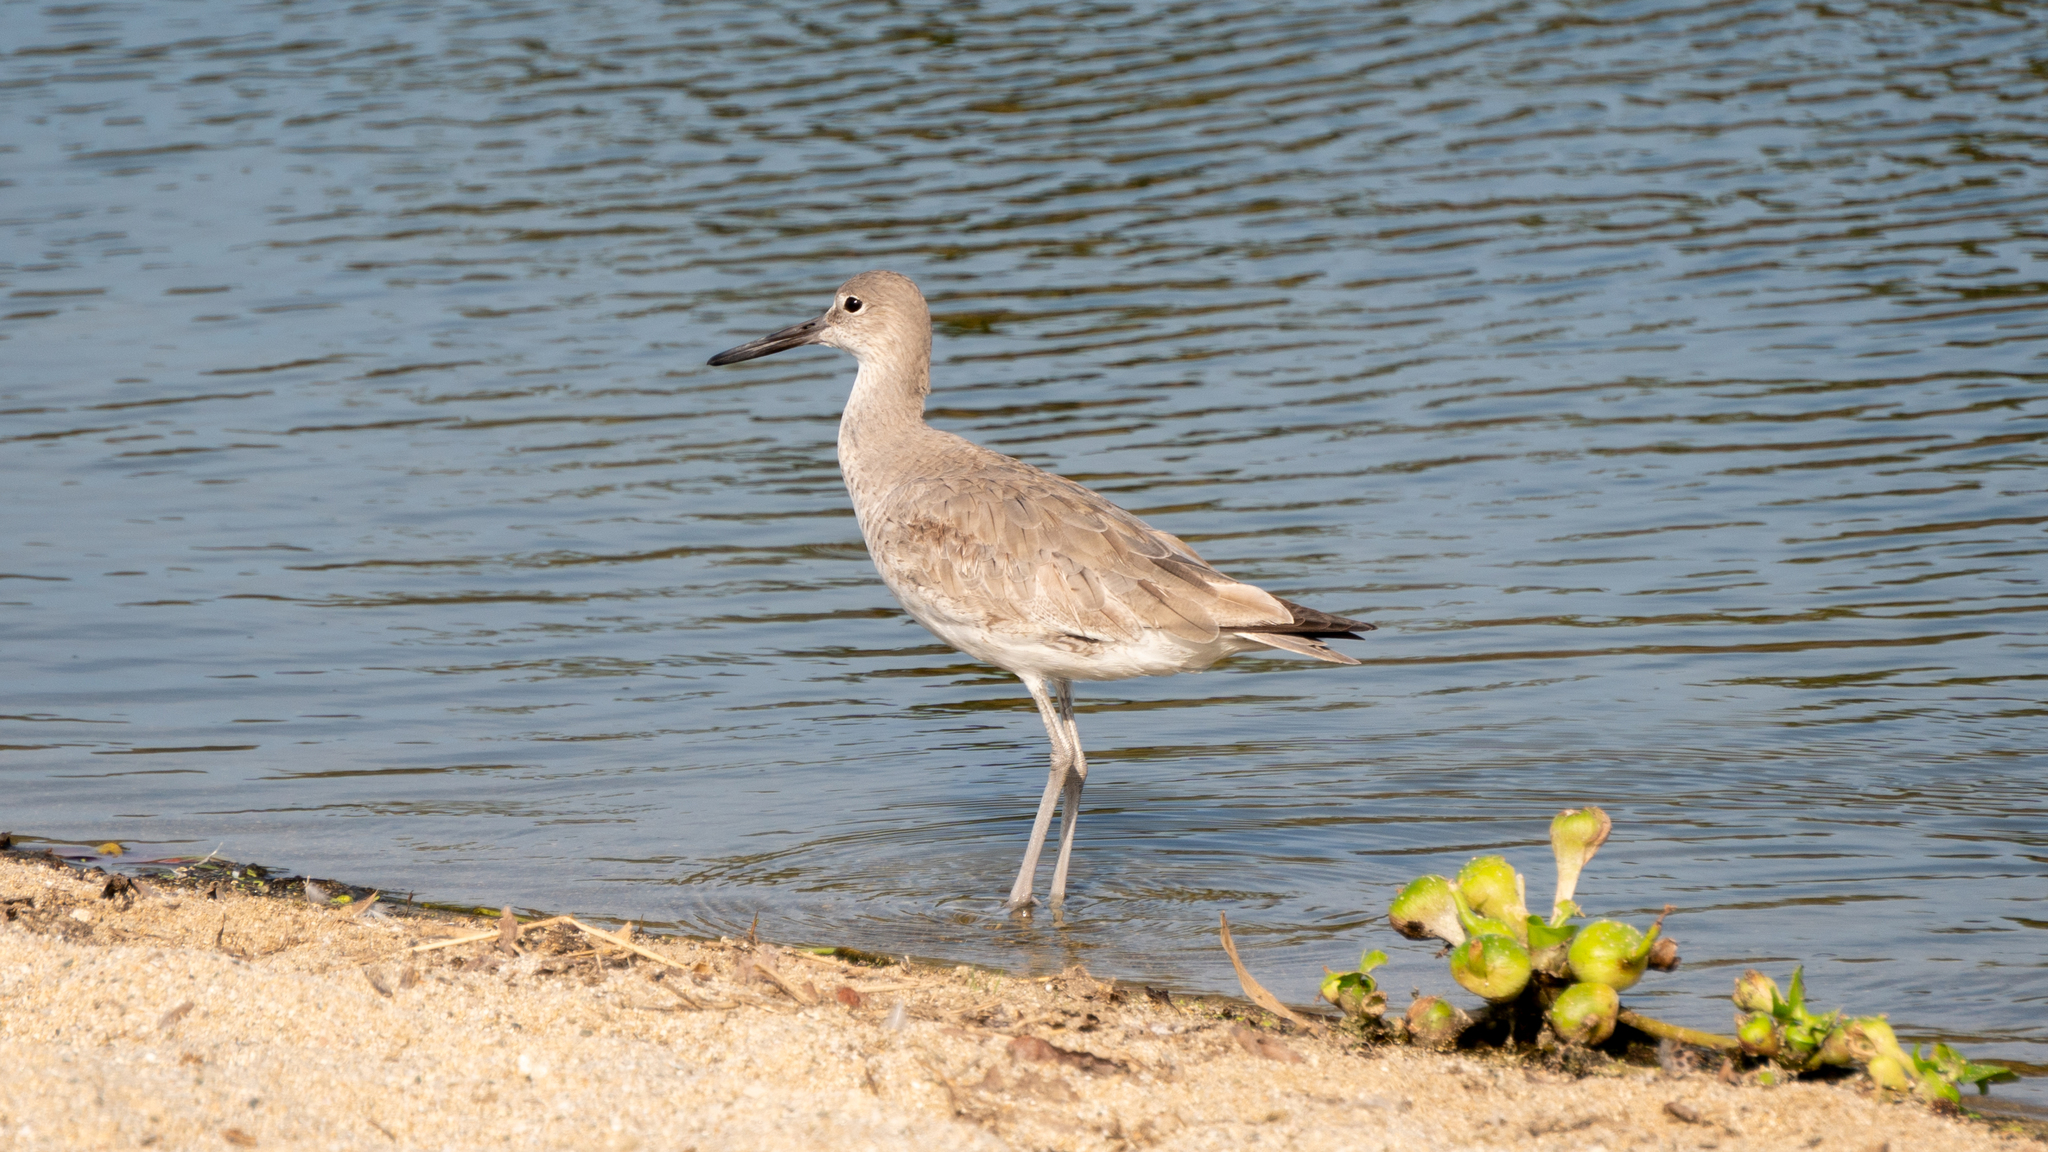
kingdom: Animalia
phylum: Chordata
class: Aves
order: Charadriiformes
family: Scolopacidae
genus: Tringa
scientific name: Tringa semipalmata
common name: Willet
